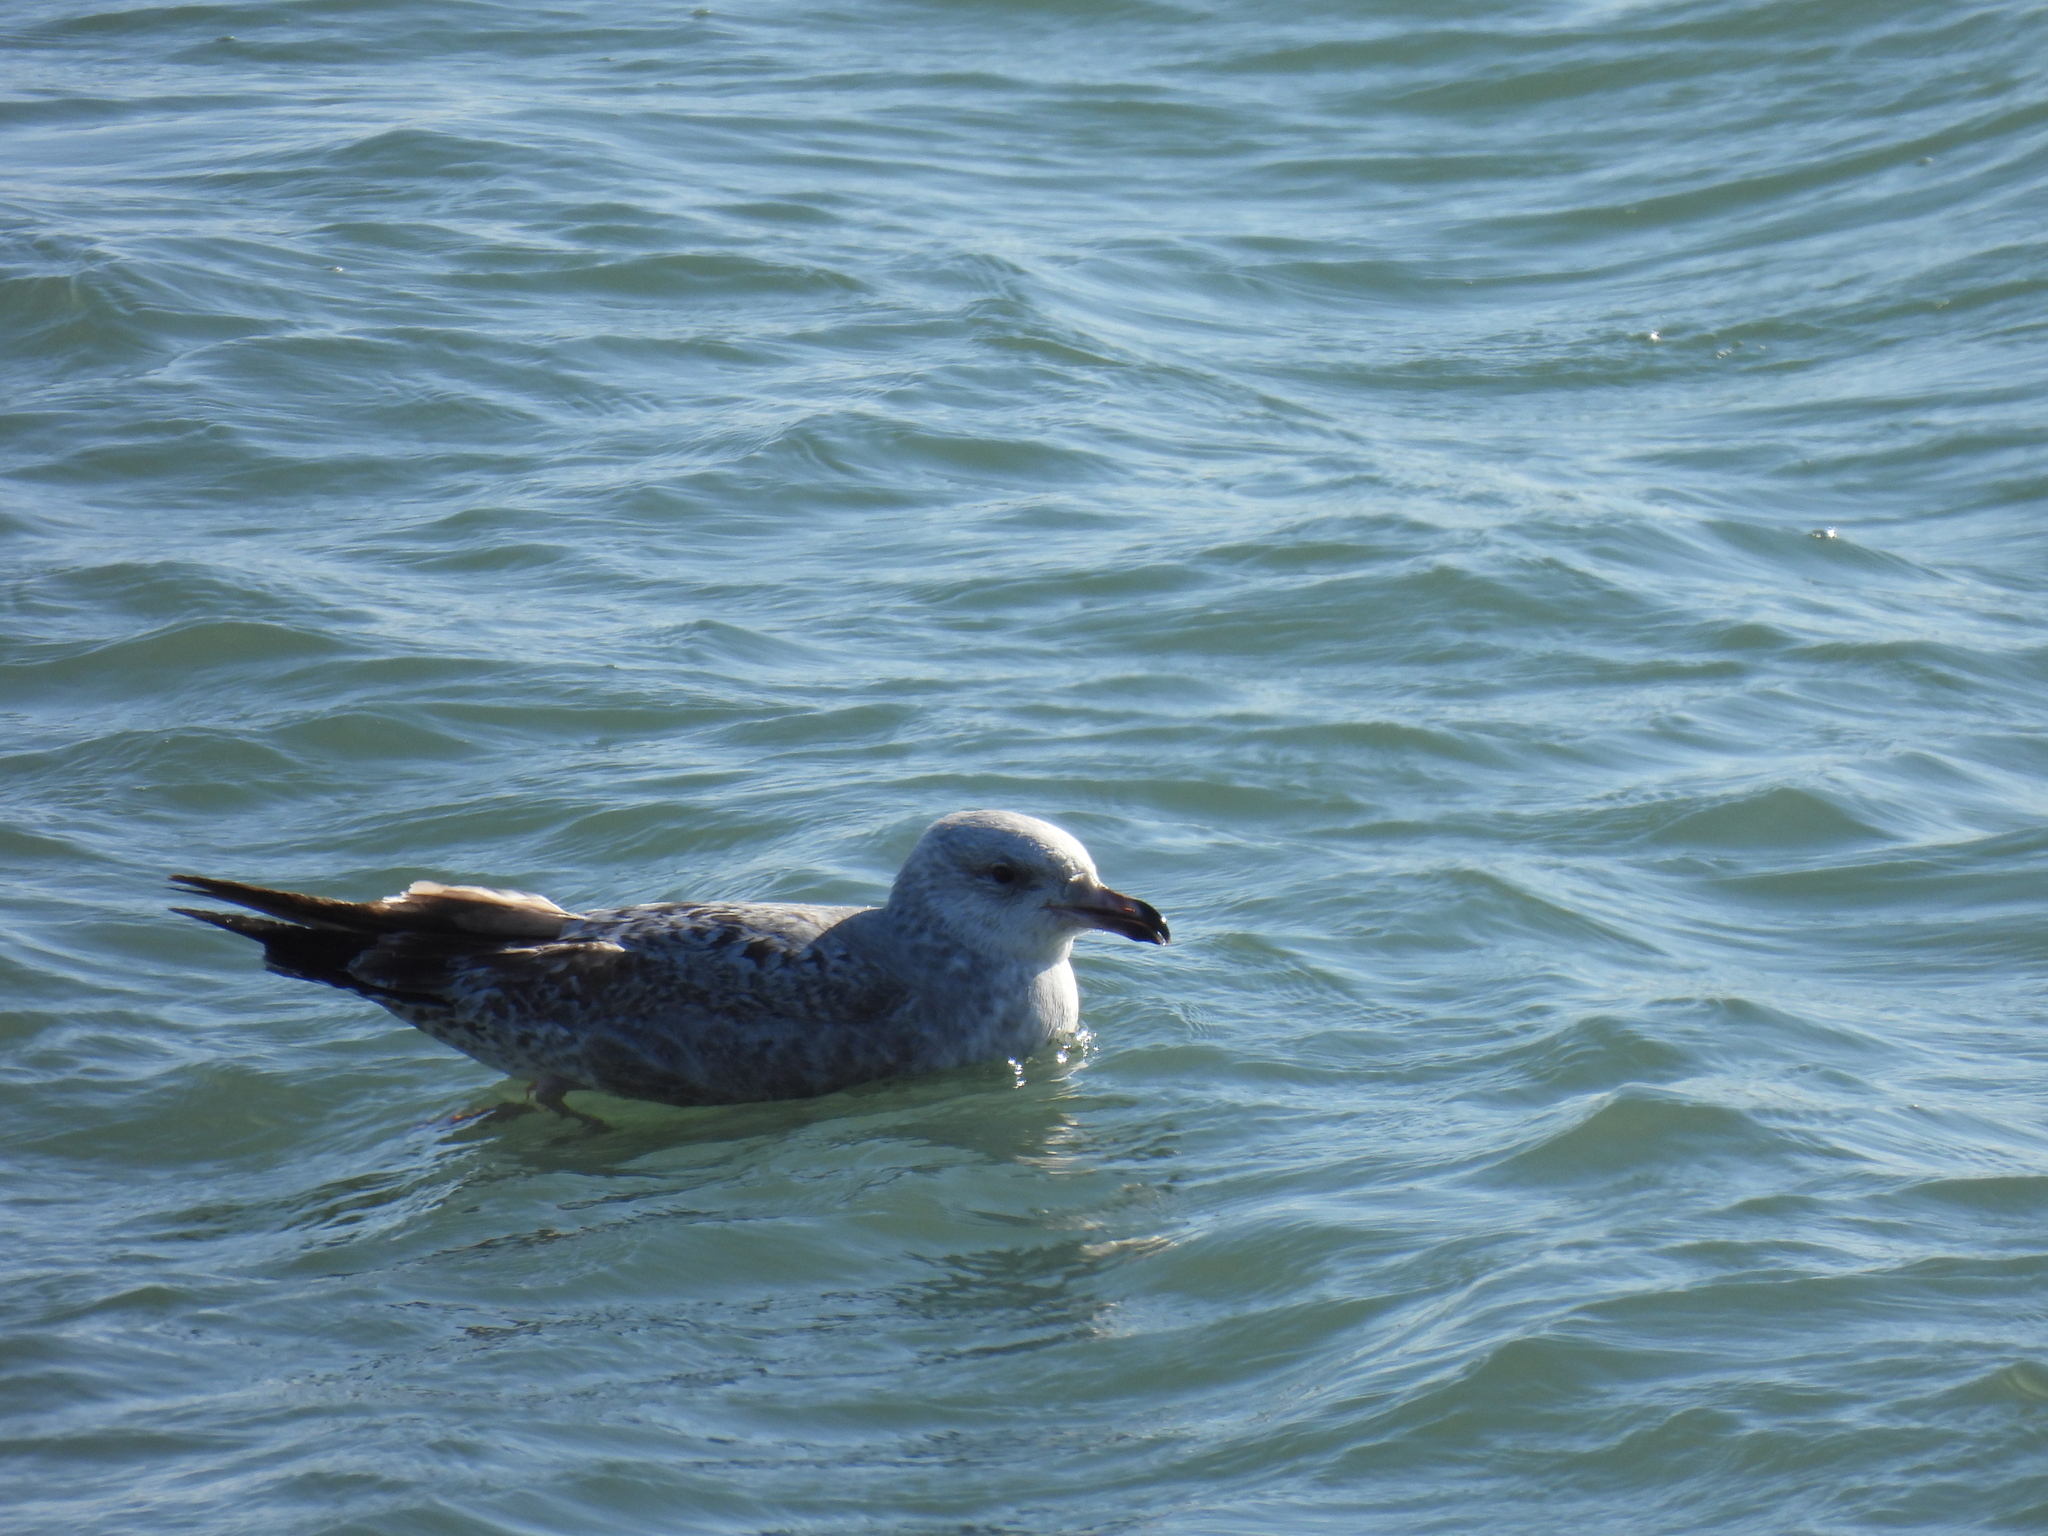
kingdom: Animalia
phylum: Chordata
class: Aves
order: Charadriiformes
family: Laridae
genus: Larus
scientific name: Larus argentatus
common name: Herring gull
